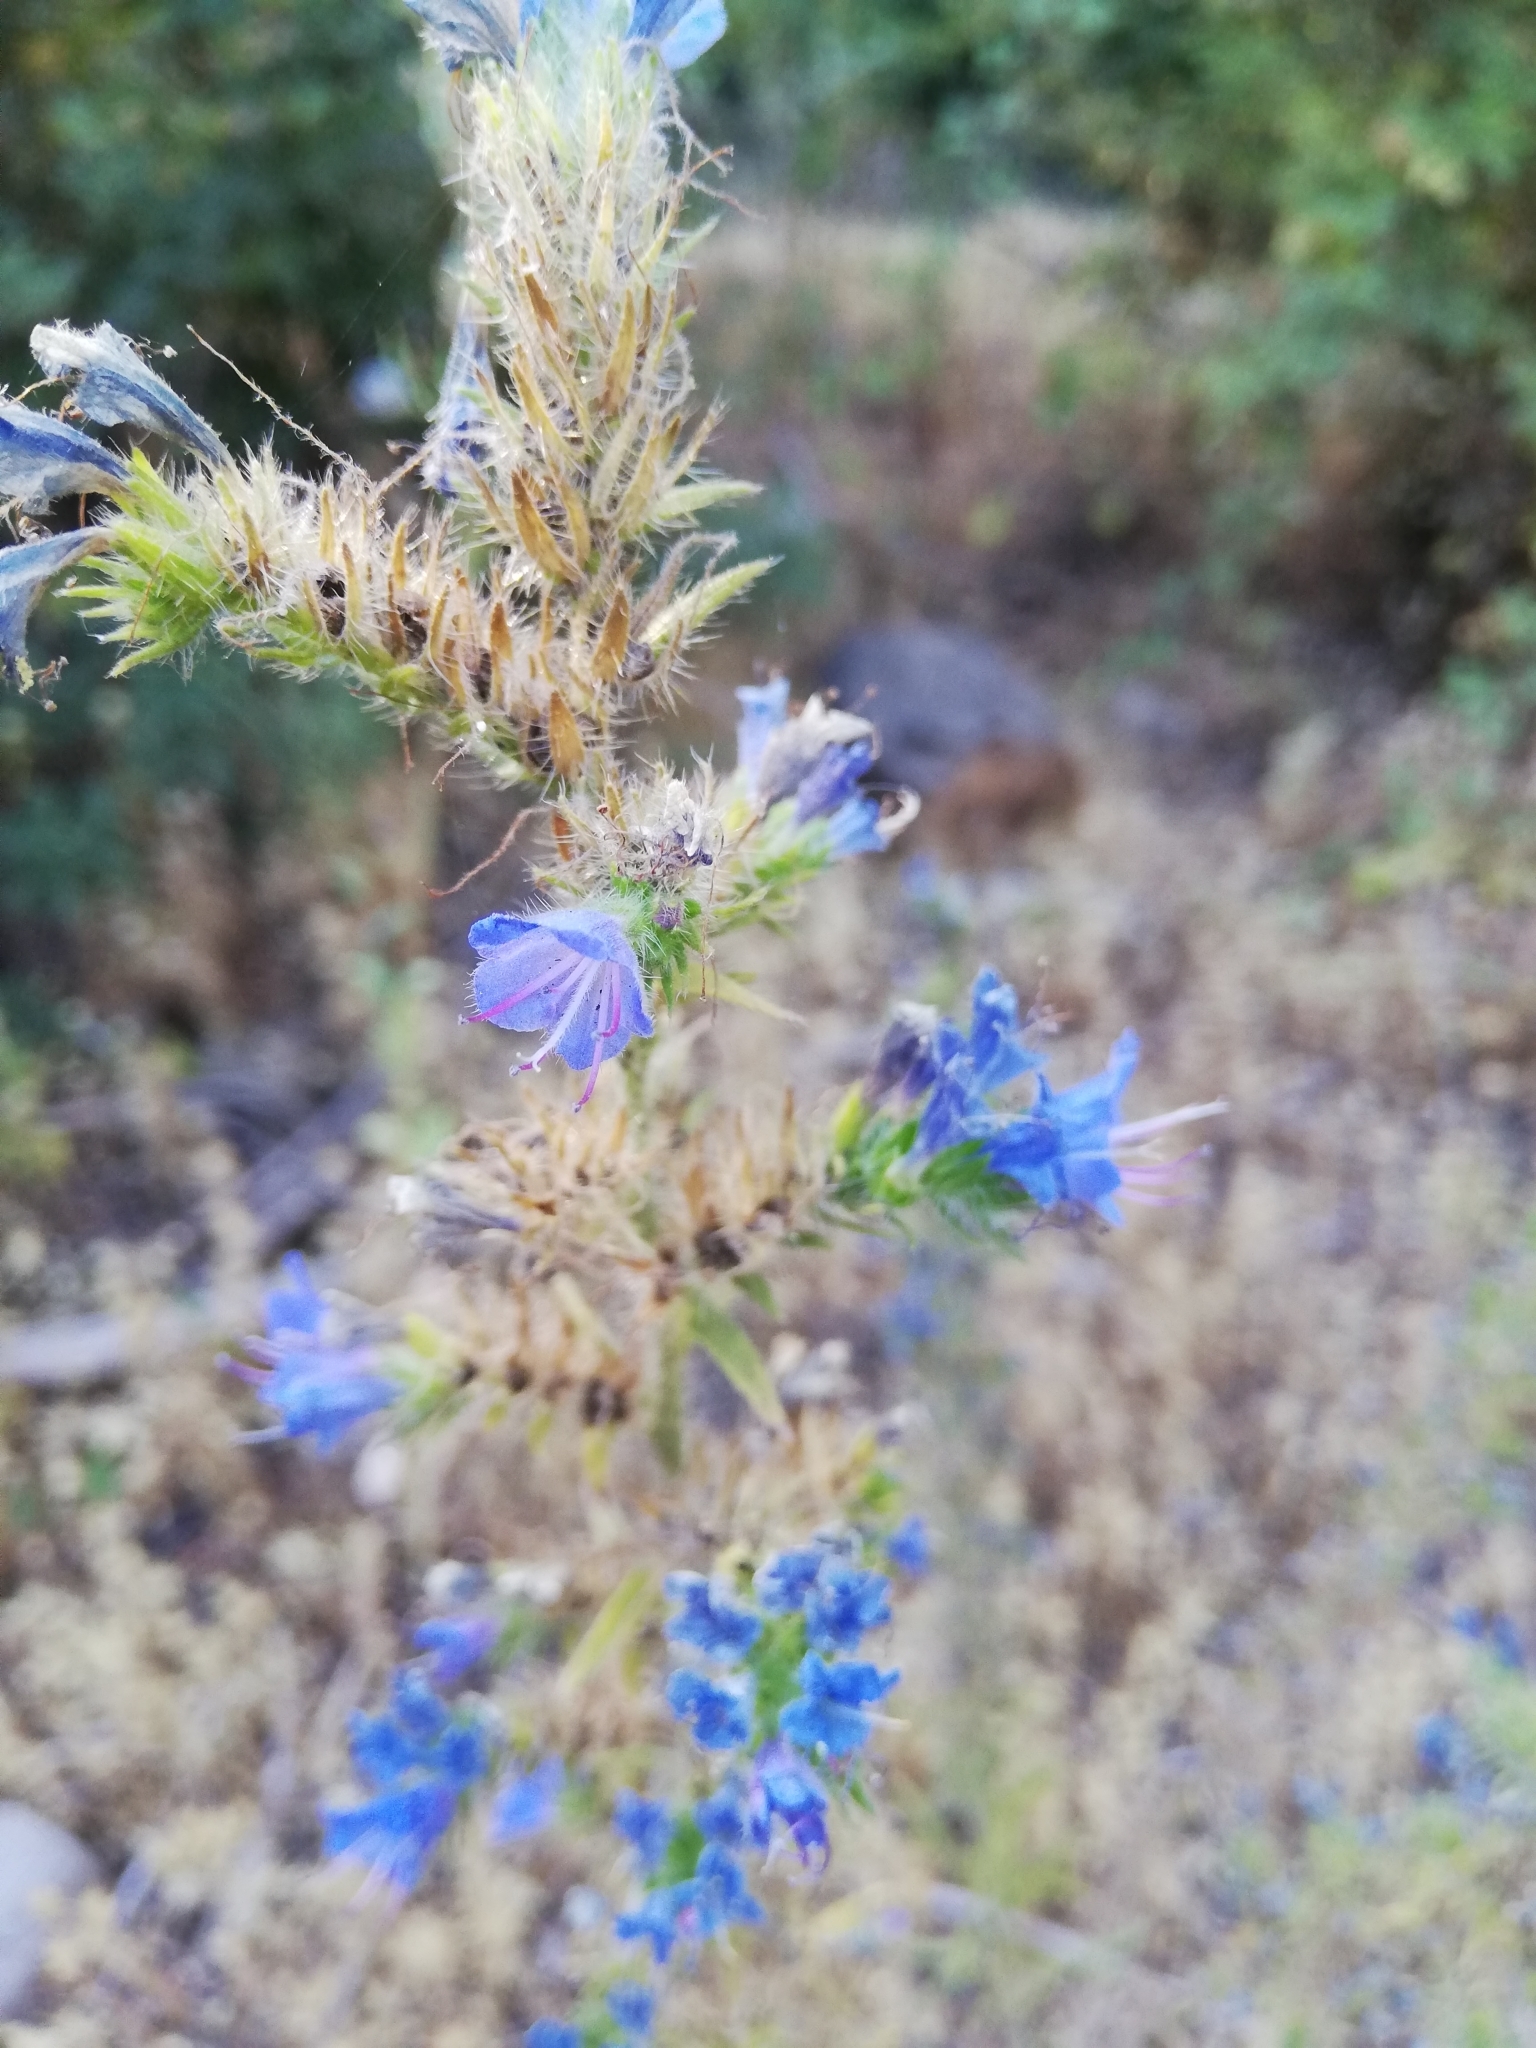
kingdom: Plantae
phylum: Tracheophyta
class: Magnoliopsida
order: Boraginales
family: Boraginaceae
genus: Echium
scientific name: Echium vulgare
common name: Common viper's bugloss
